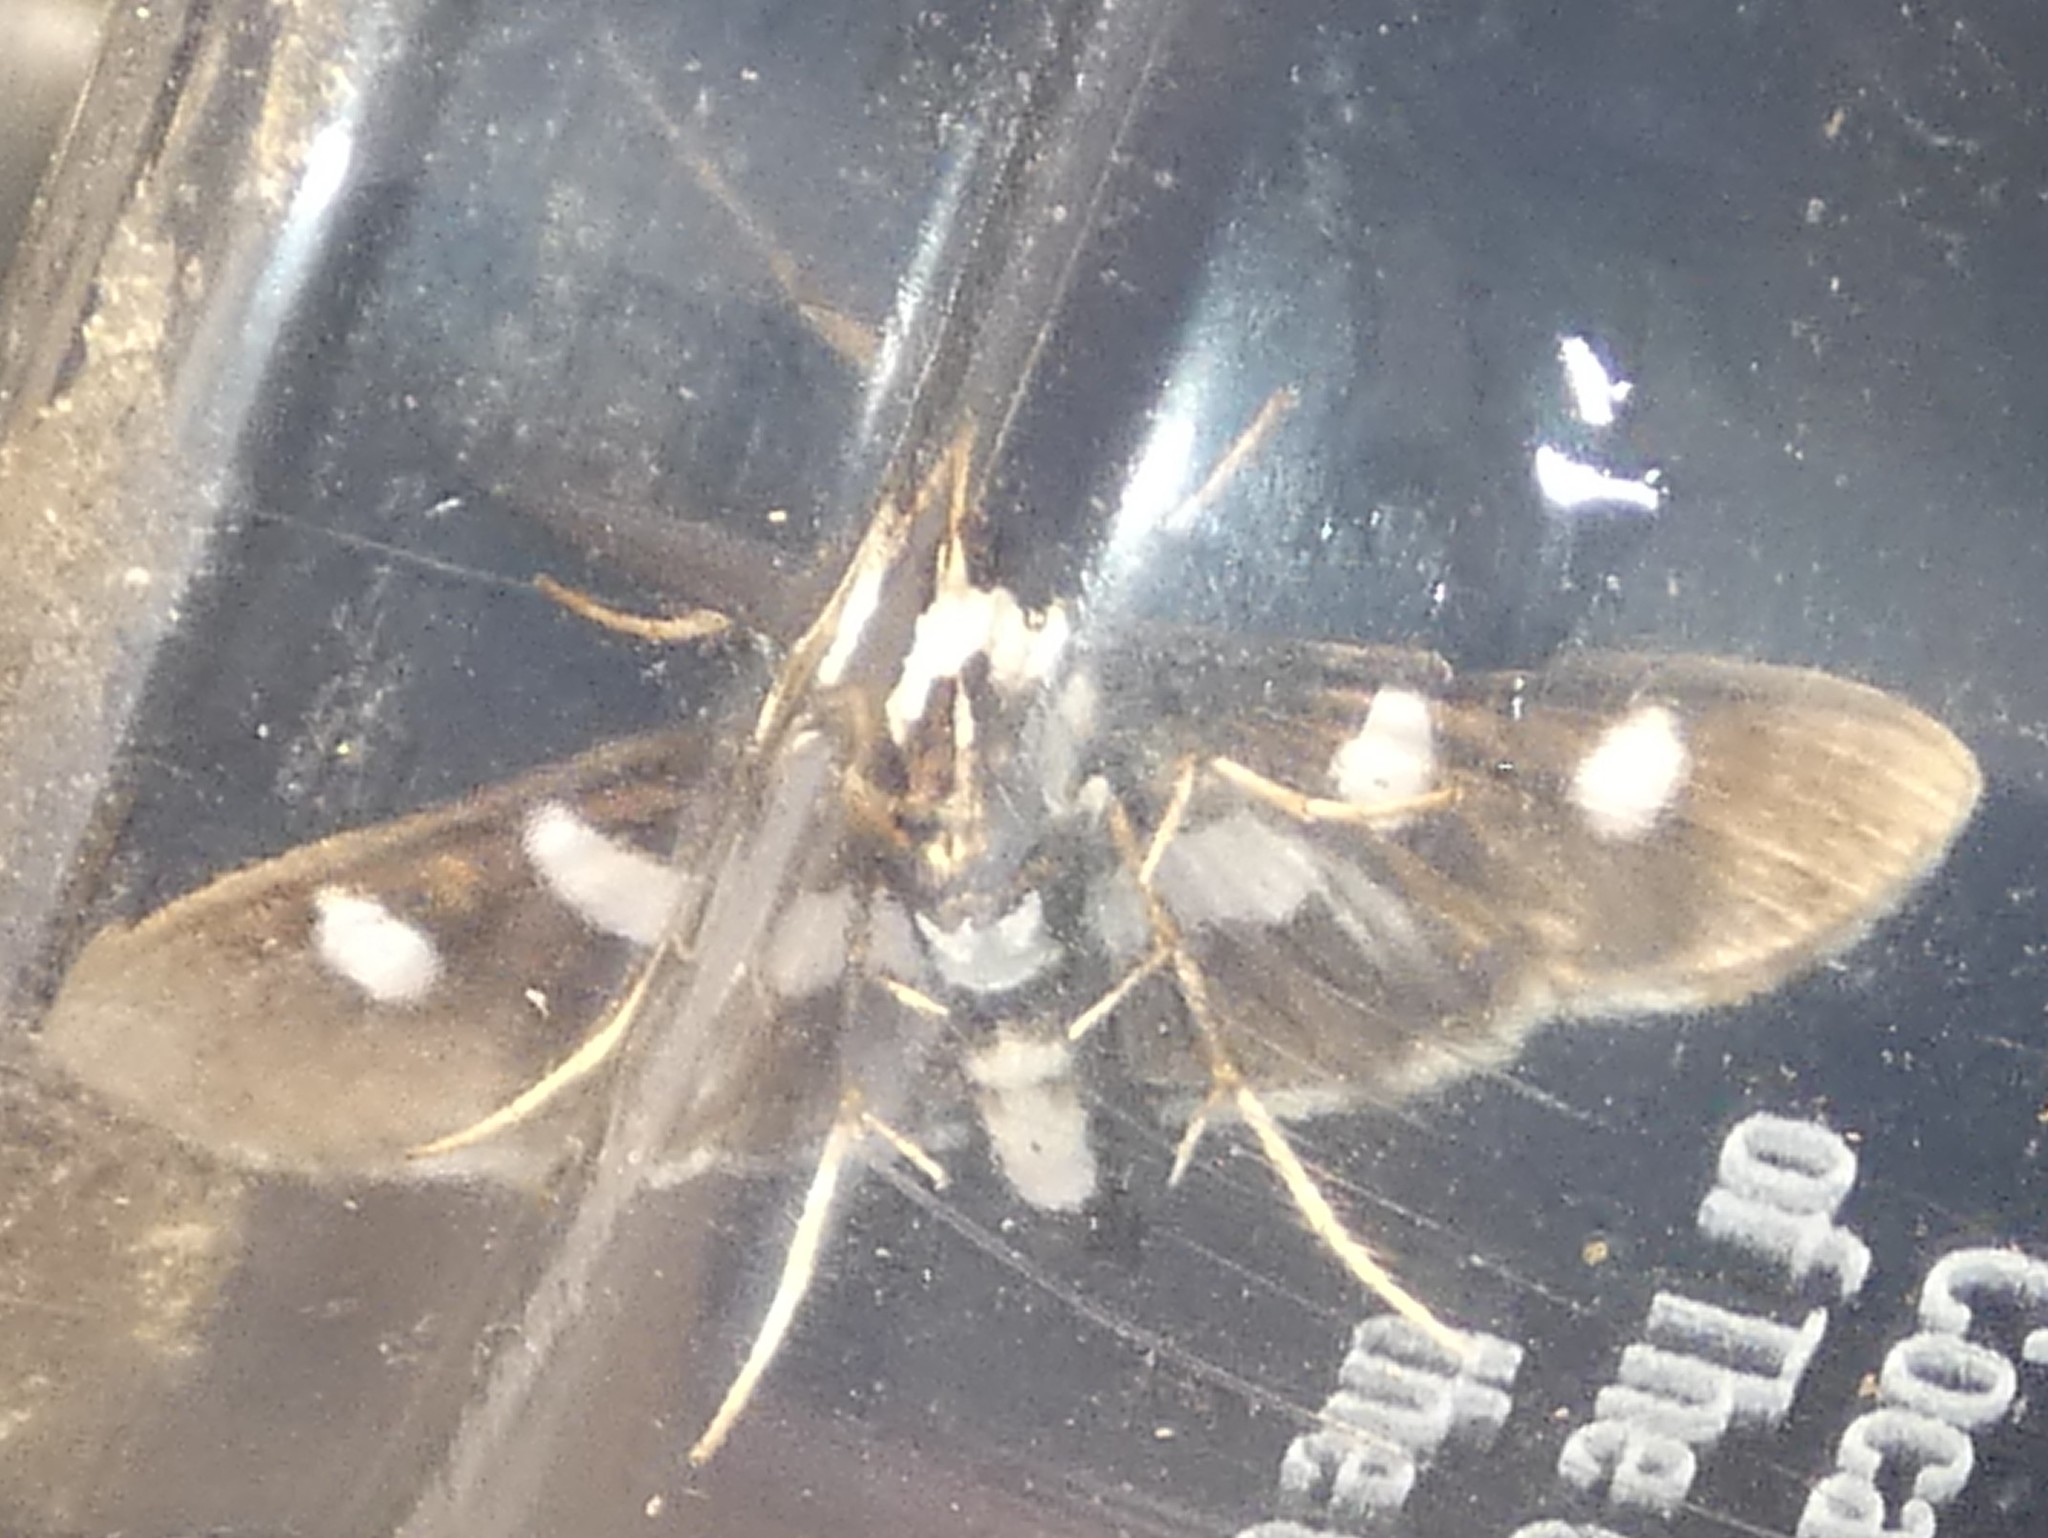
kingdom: Animalia
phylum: Arthropoda
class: Insecta
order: Lepidoptera
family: Crambidae
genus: Desmia
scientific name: Desmia funeralis
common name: Grape leaf folder moth
